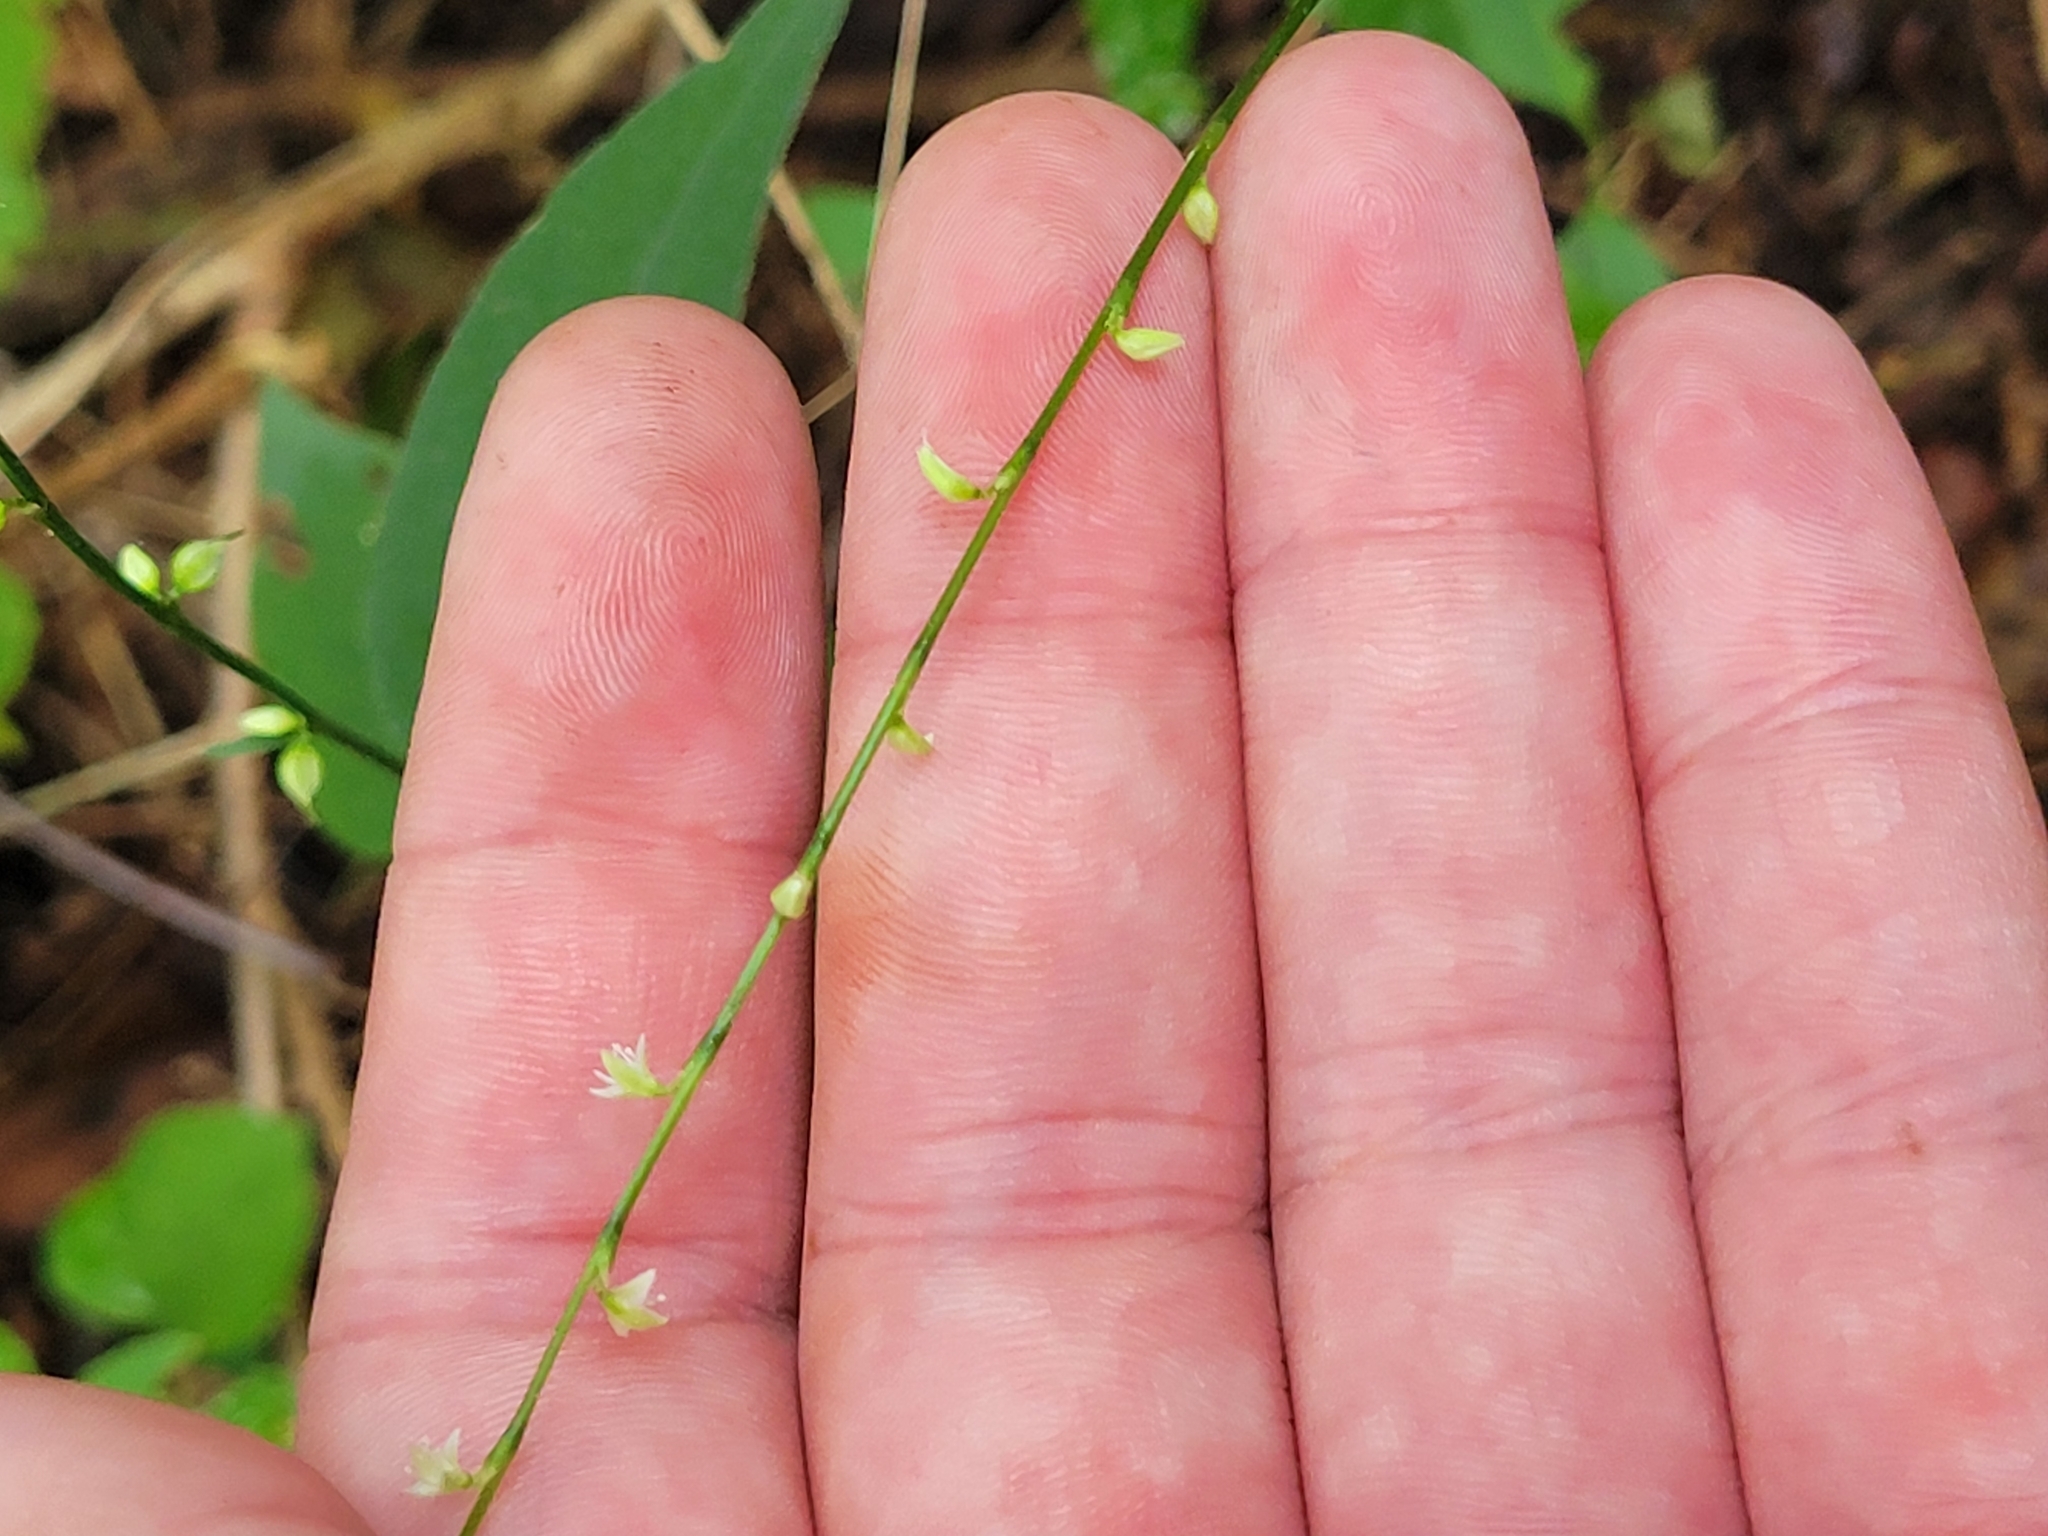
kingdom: Plantae
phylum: Tracheophyta
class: Magnoliopsida
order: Caryophyllales
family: Polygonaceae
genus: Persicaria
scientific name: Persicaria virginiana
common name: Jumpseed
